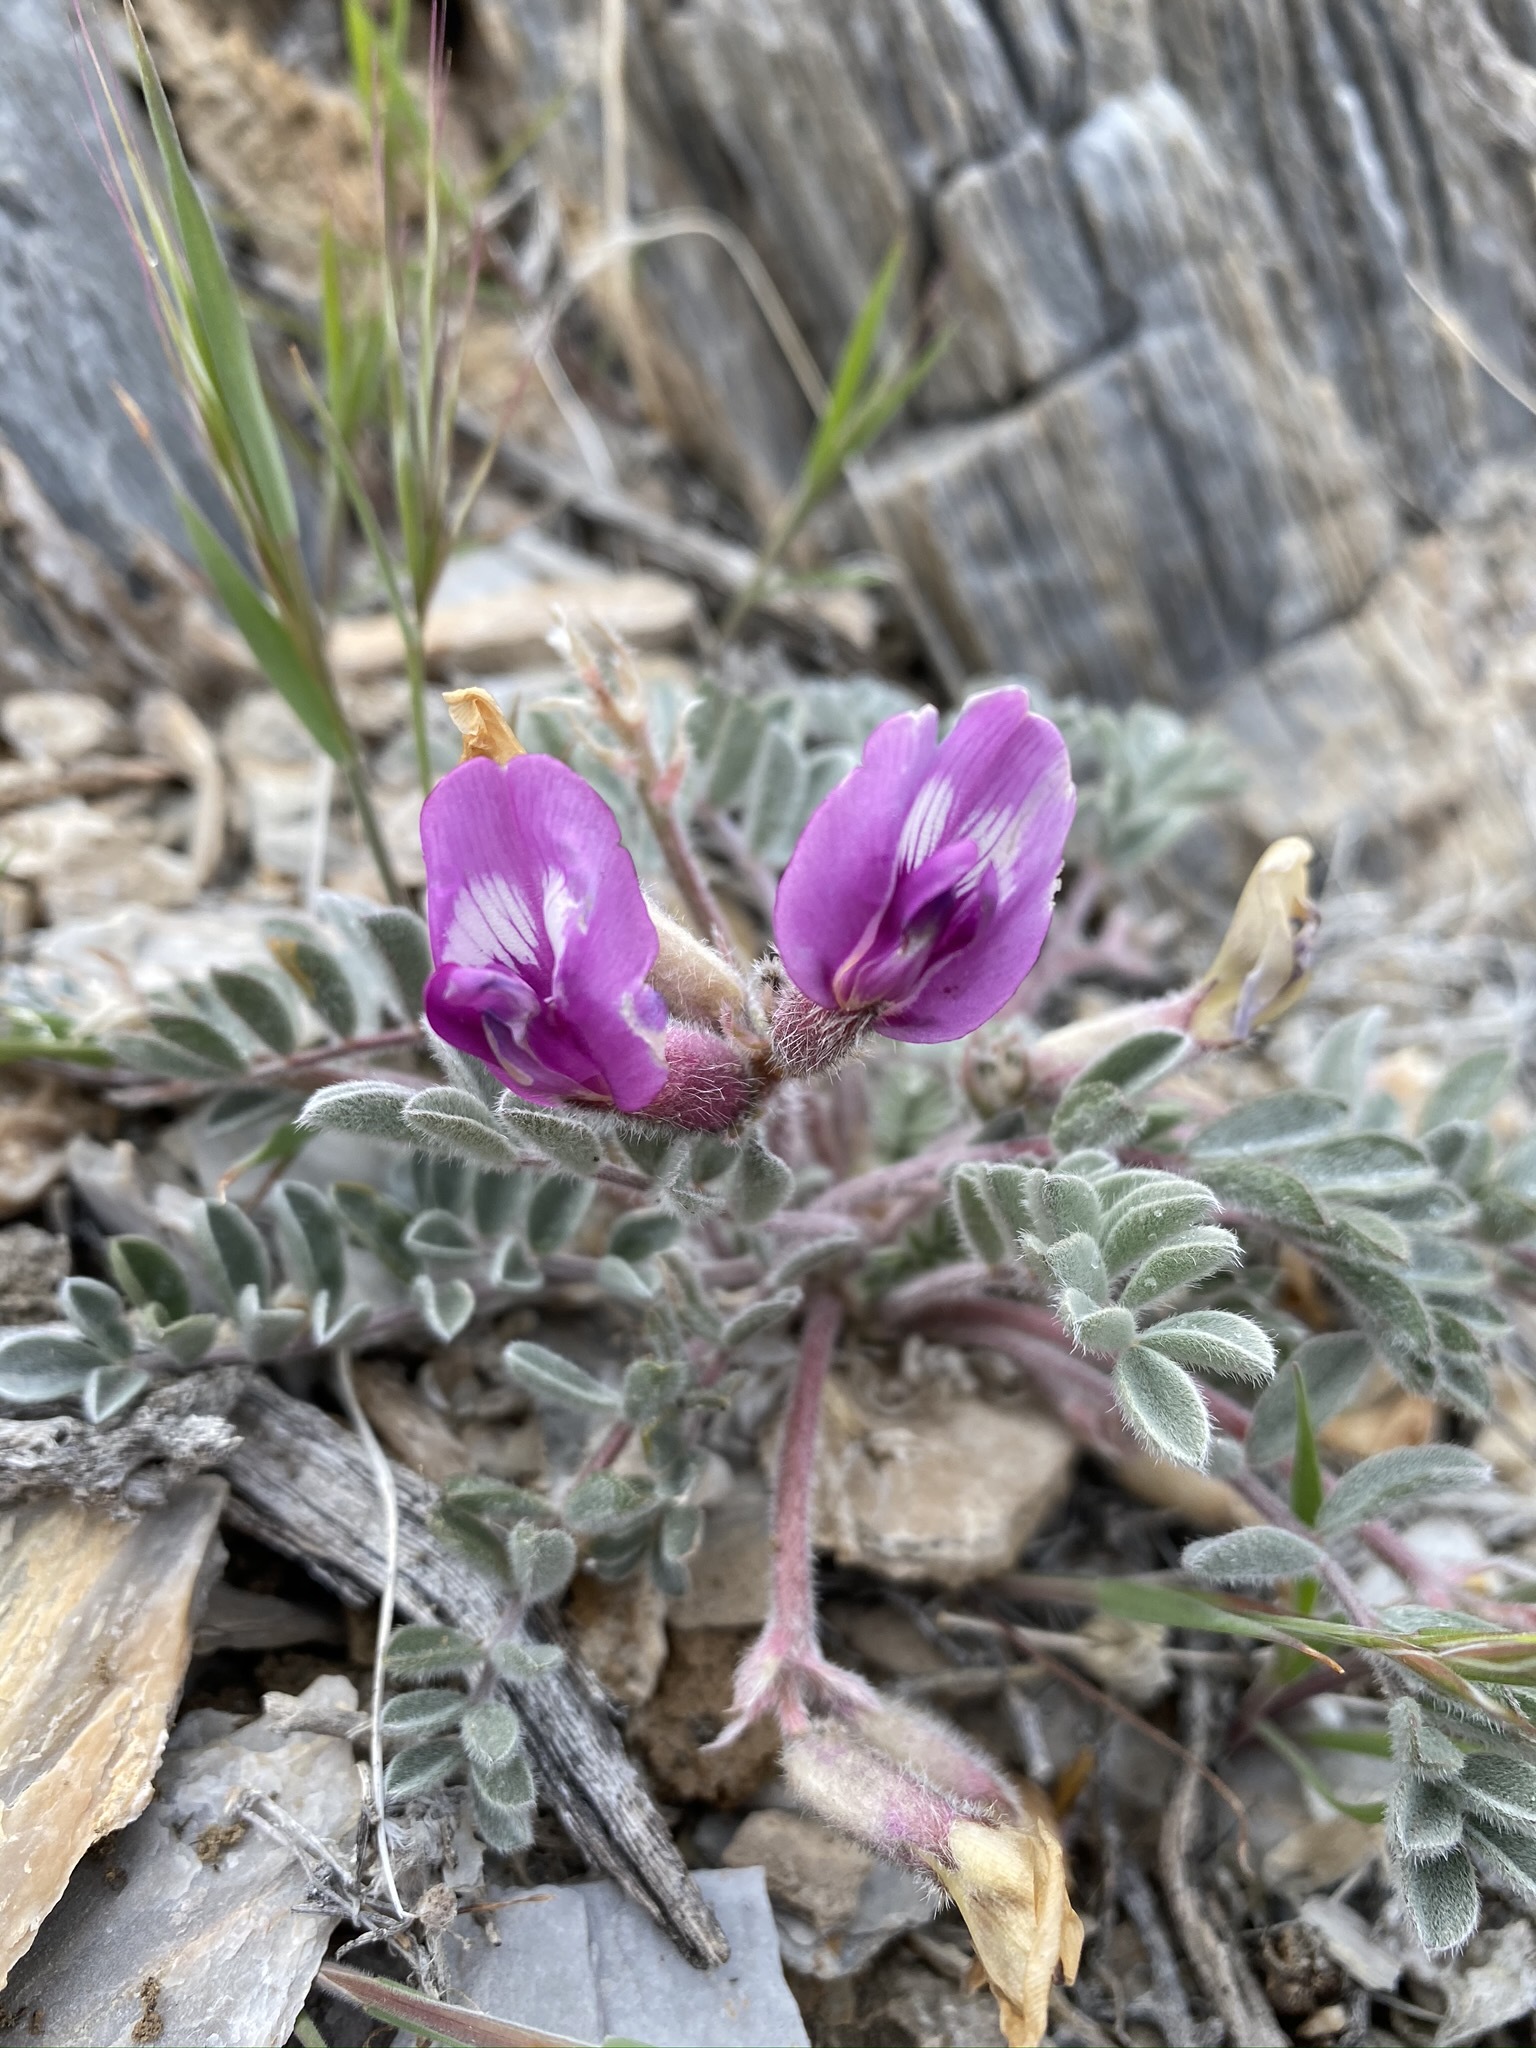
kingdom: Plantae
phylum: Tracheophyta
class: Magnoliopsida
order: Fabales
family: Fabaceae
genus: Astragalus
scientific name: Astragalus newberryi
